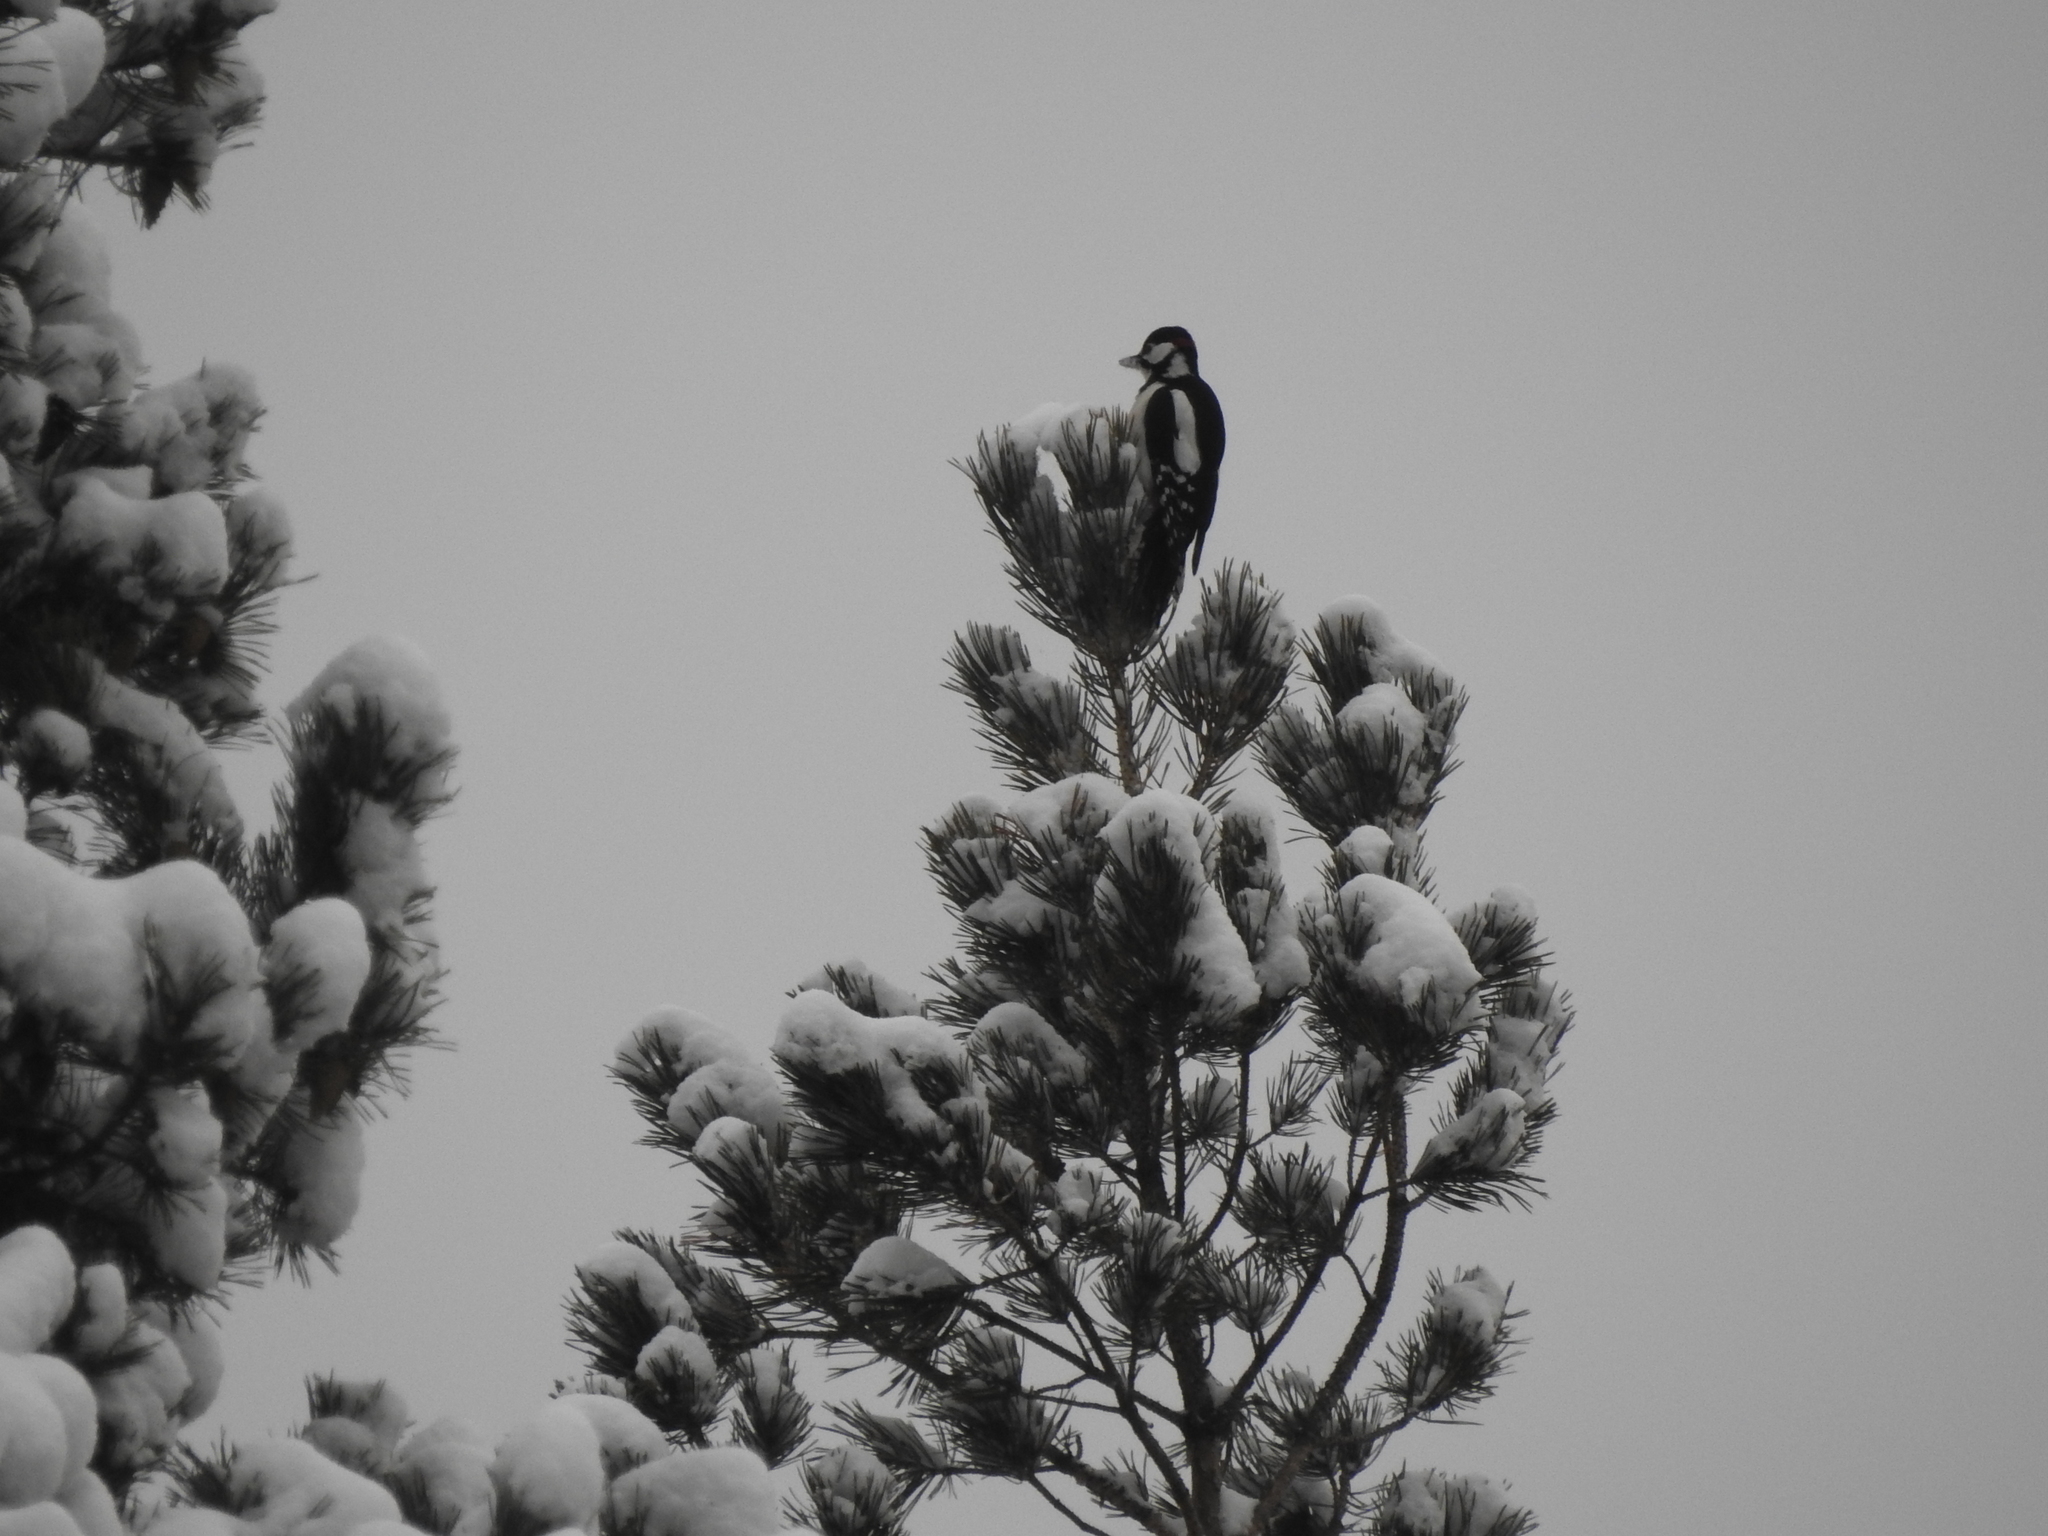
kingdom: Animalia
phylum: Chordata
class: Aves
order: Piciformes
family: Picidae
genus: Dendrocopos
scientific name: Dendrocopos major
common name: Great spotted woodpecker
